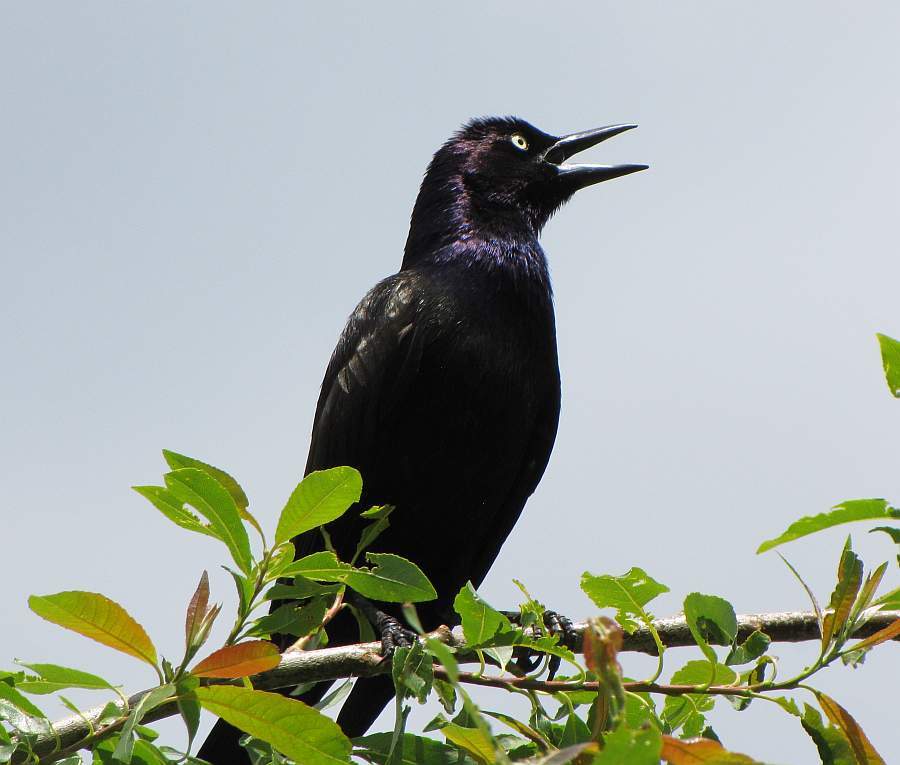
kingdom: Animalia
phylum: Chordata
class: Aves
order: Passeriformes
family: Icteridae
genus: Quiscalus
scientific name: Quiscalus quiscula
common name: Common grackle
